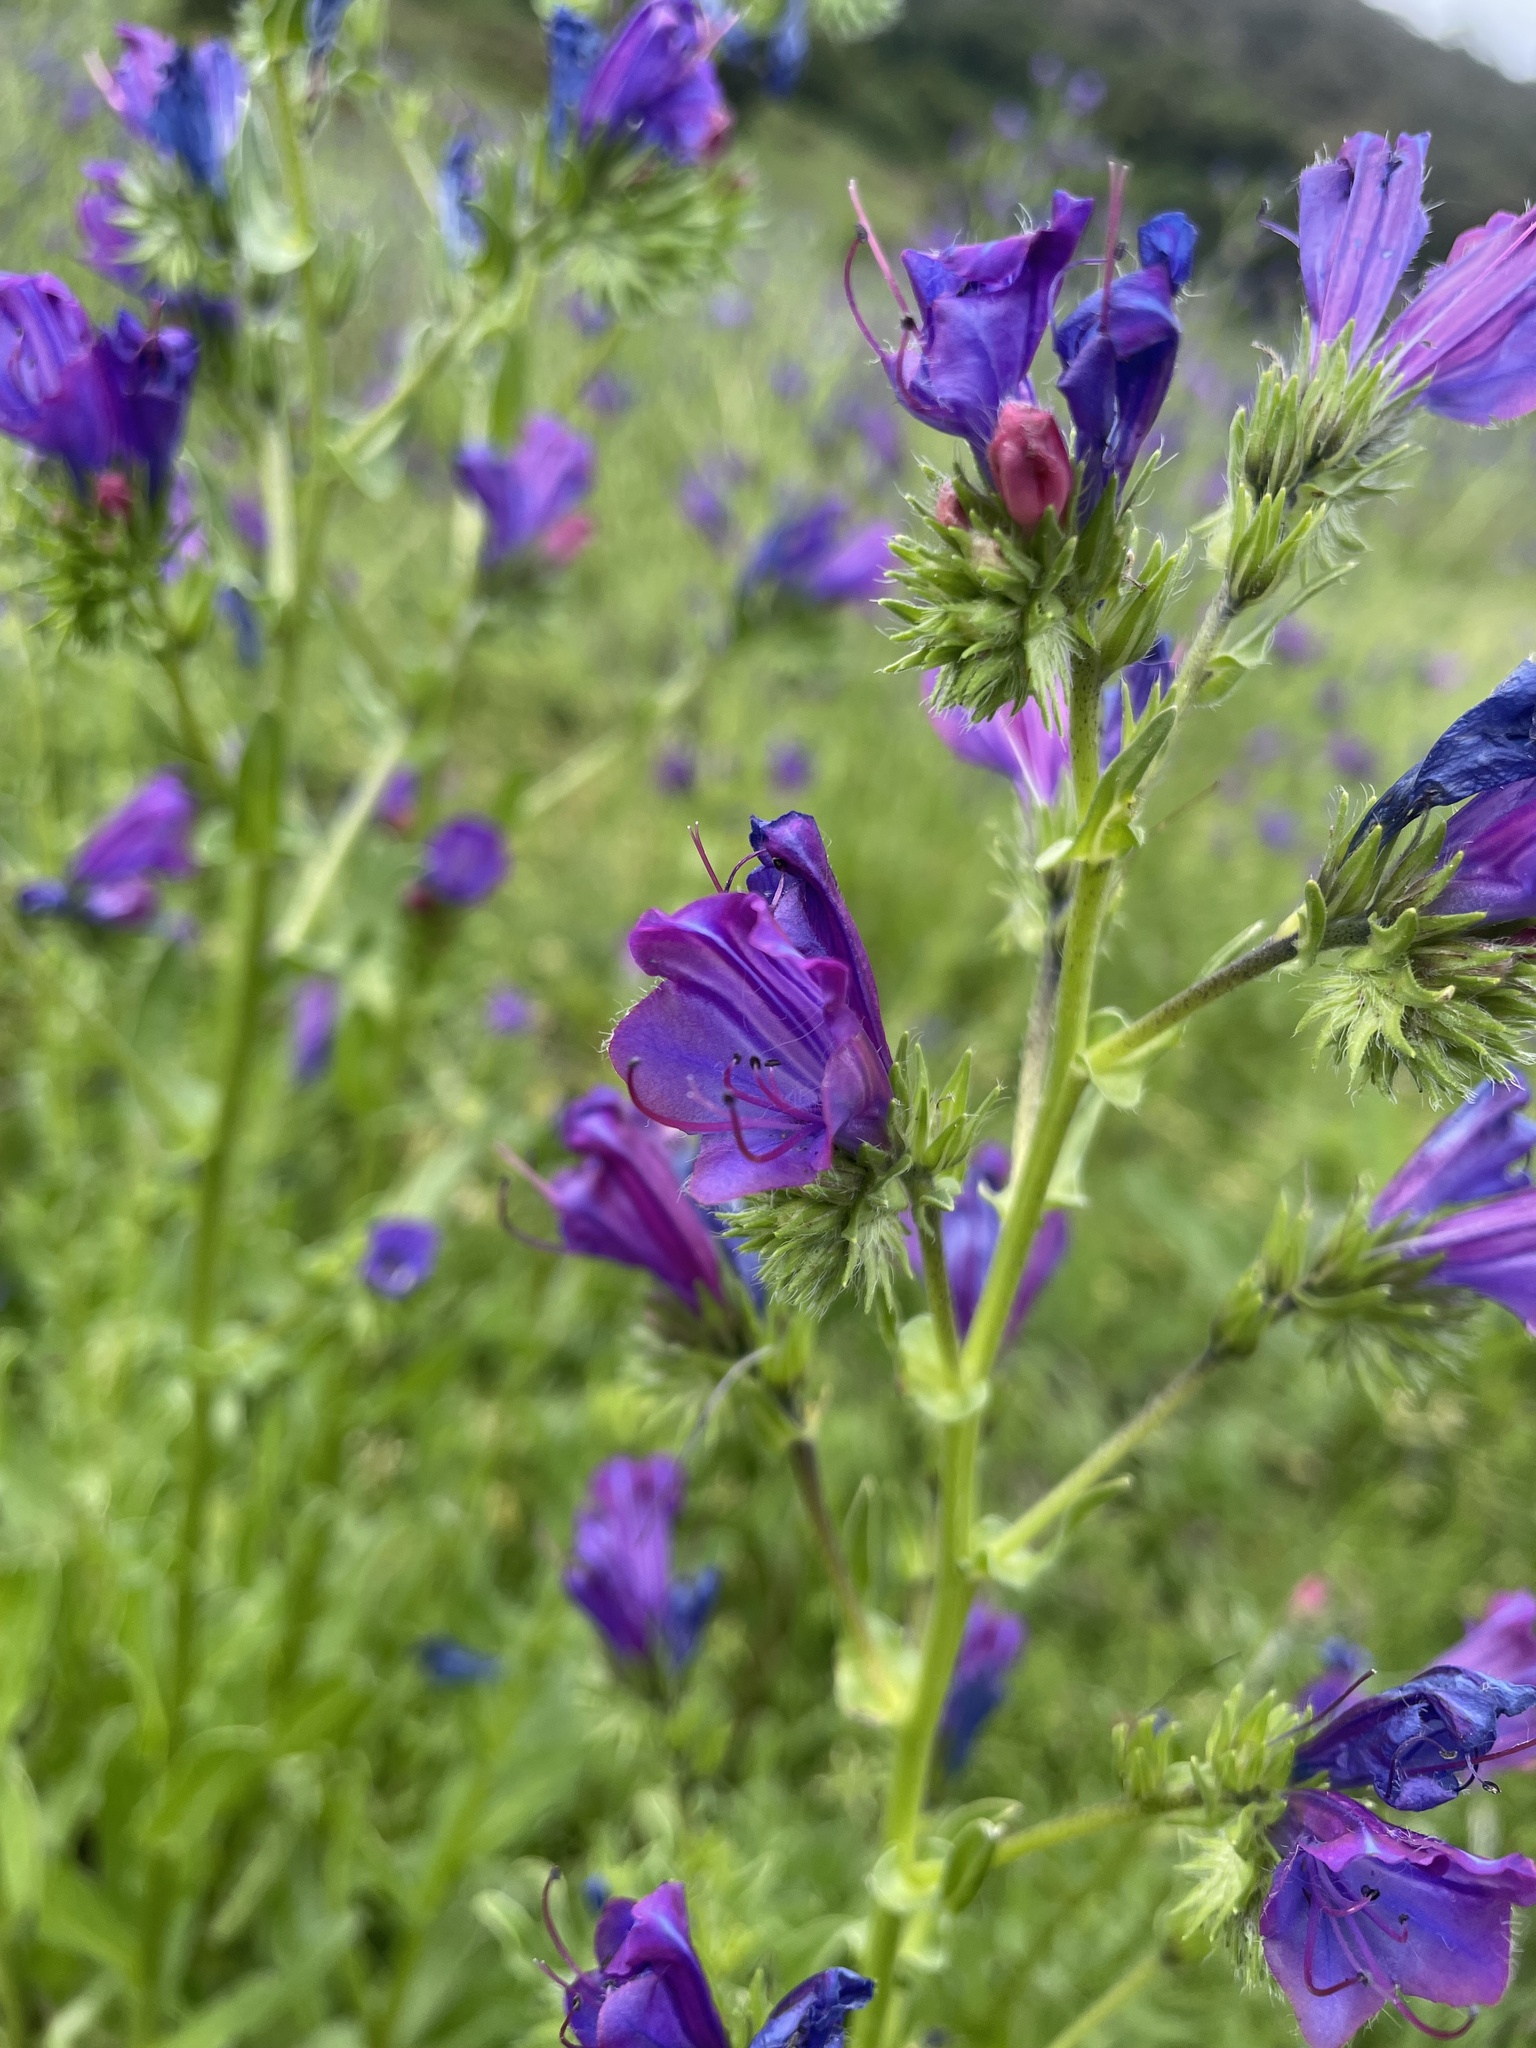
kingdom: Plantae
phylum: Tracheophyta
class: Magnoliopsida
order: Boraginales
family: Boraginaceae
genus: Echium
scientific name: Echium plantagineum
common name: Purple viper's-bugloss
